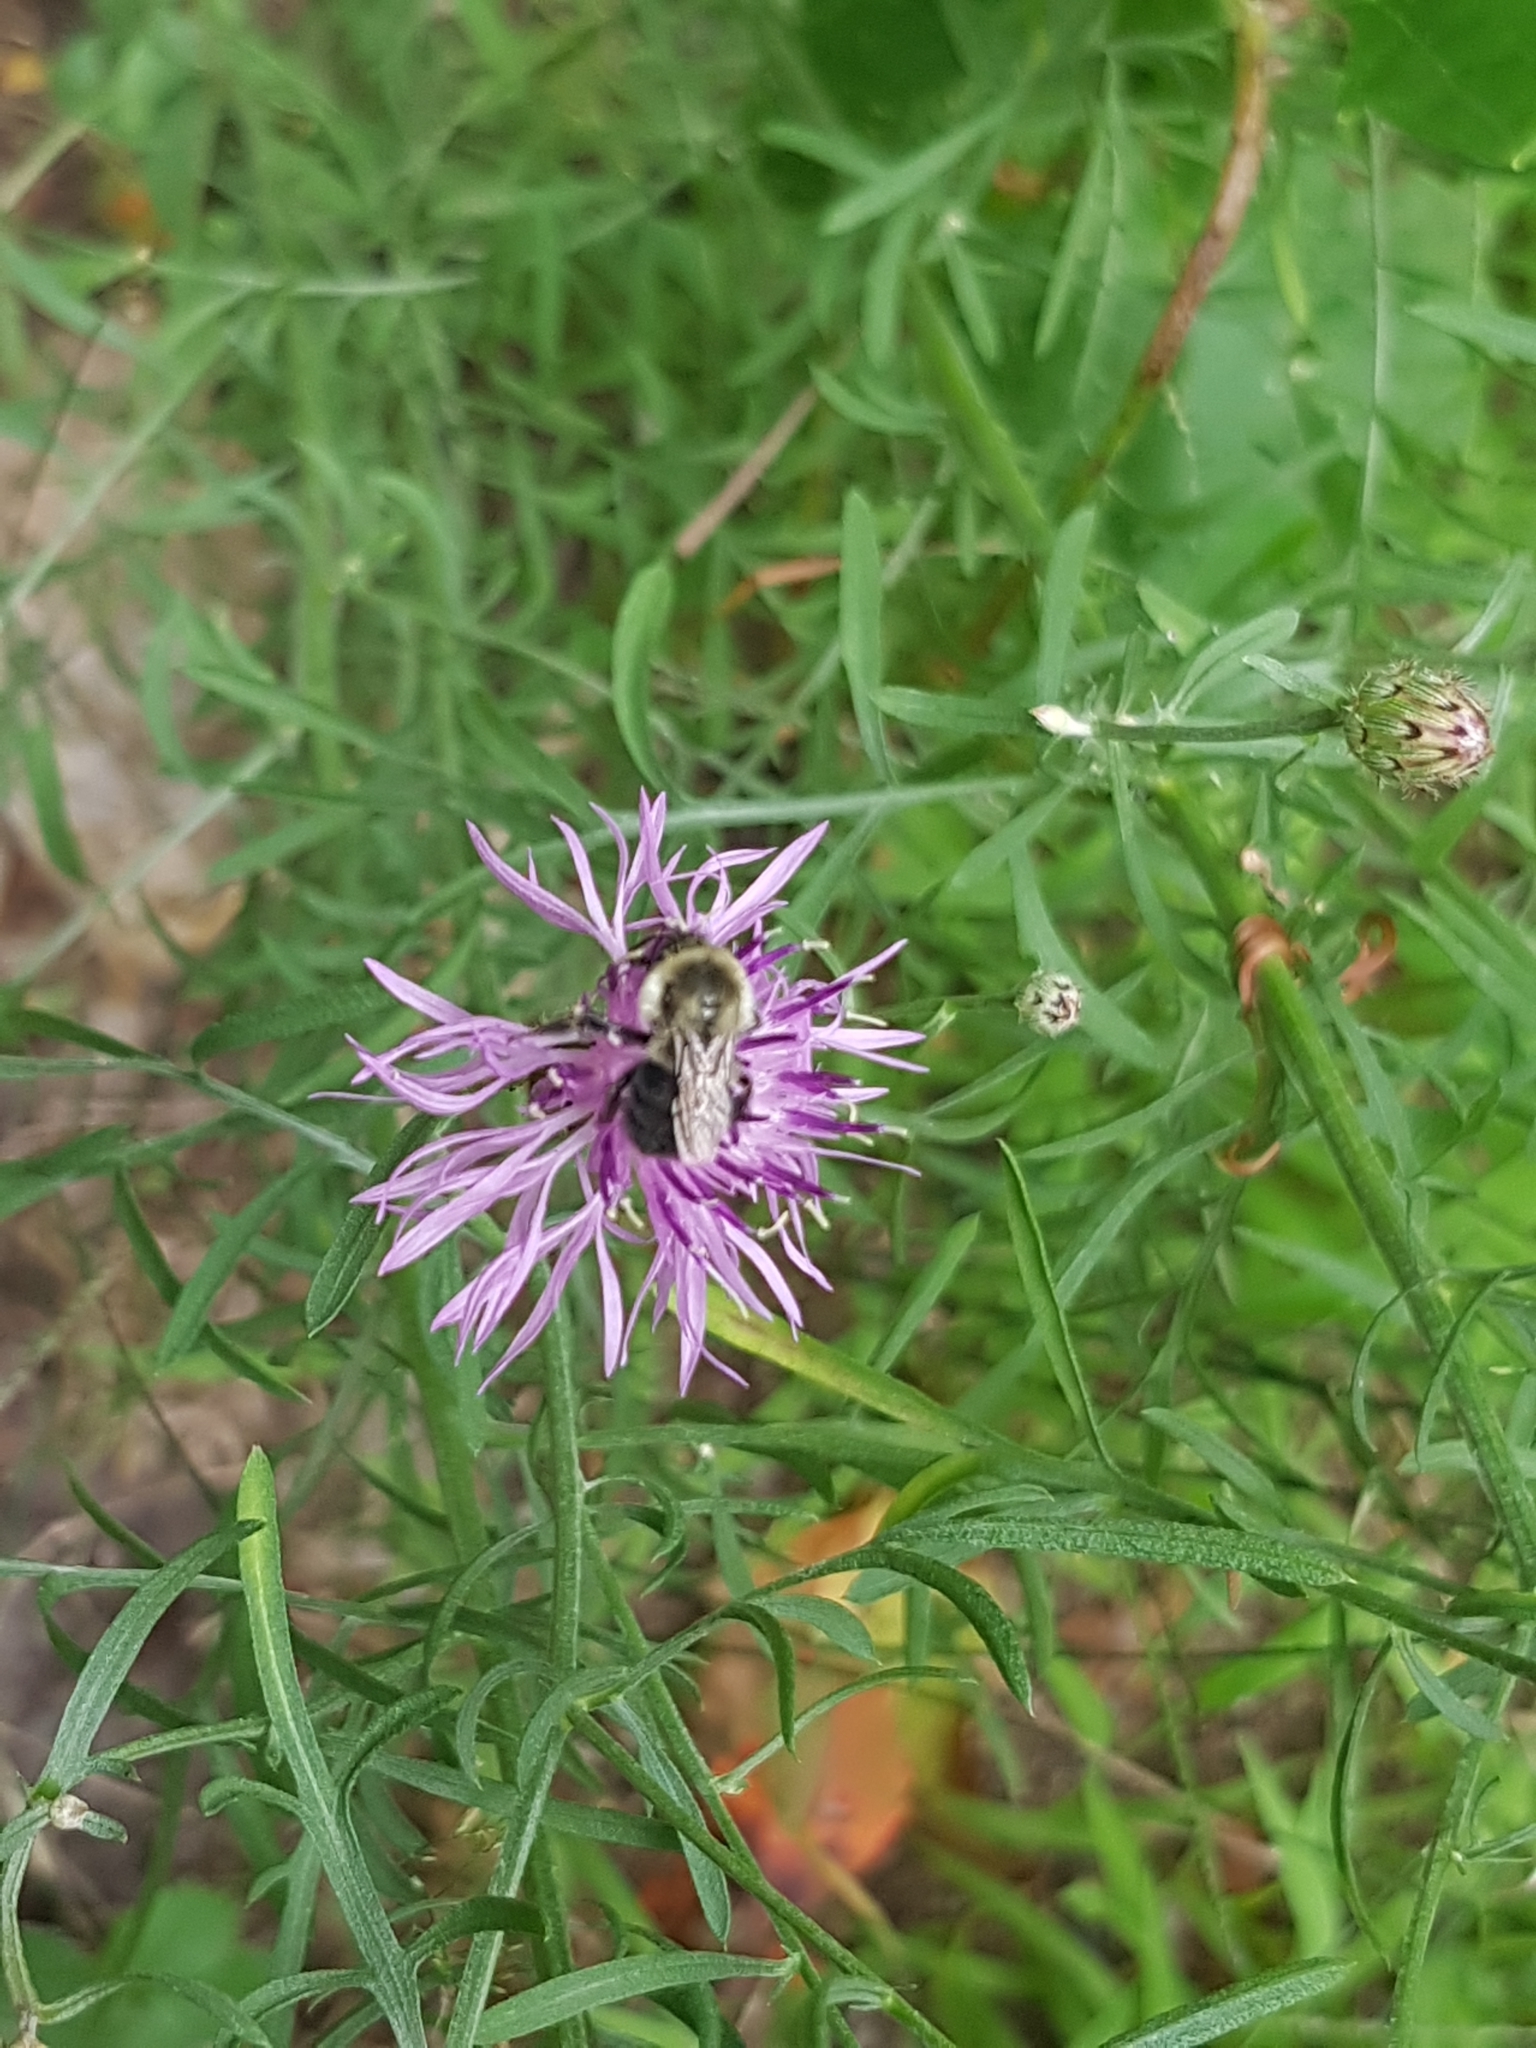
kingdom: Animalia
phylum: Arthropoda
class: Insecta
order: Hymenoptera
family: Apidae
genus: Bombus
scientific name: Bombus impatiens
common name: Common eastern bumble bee
